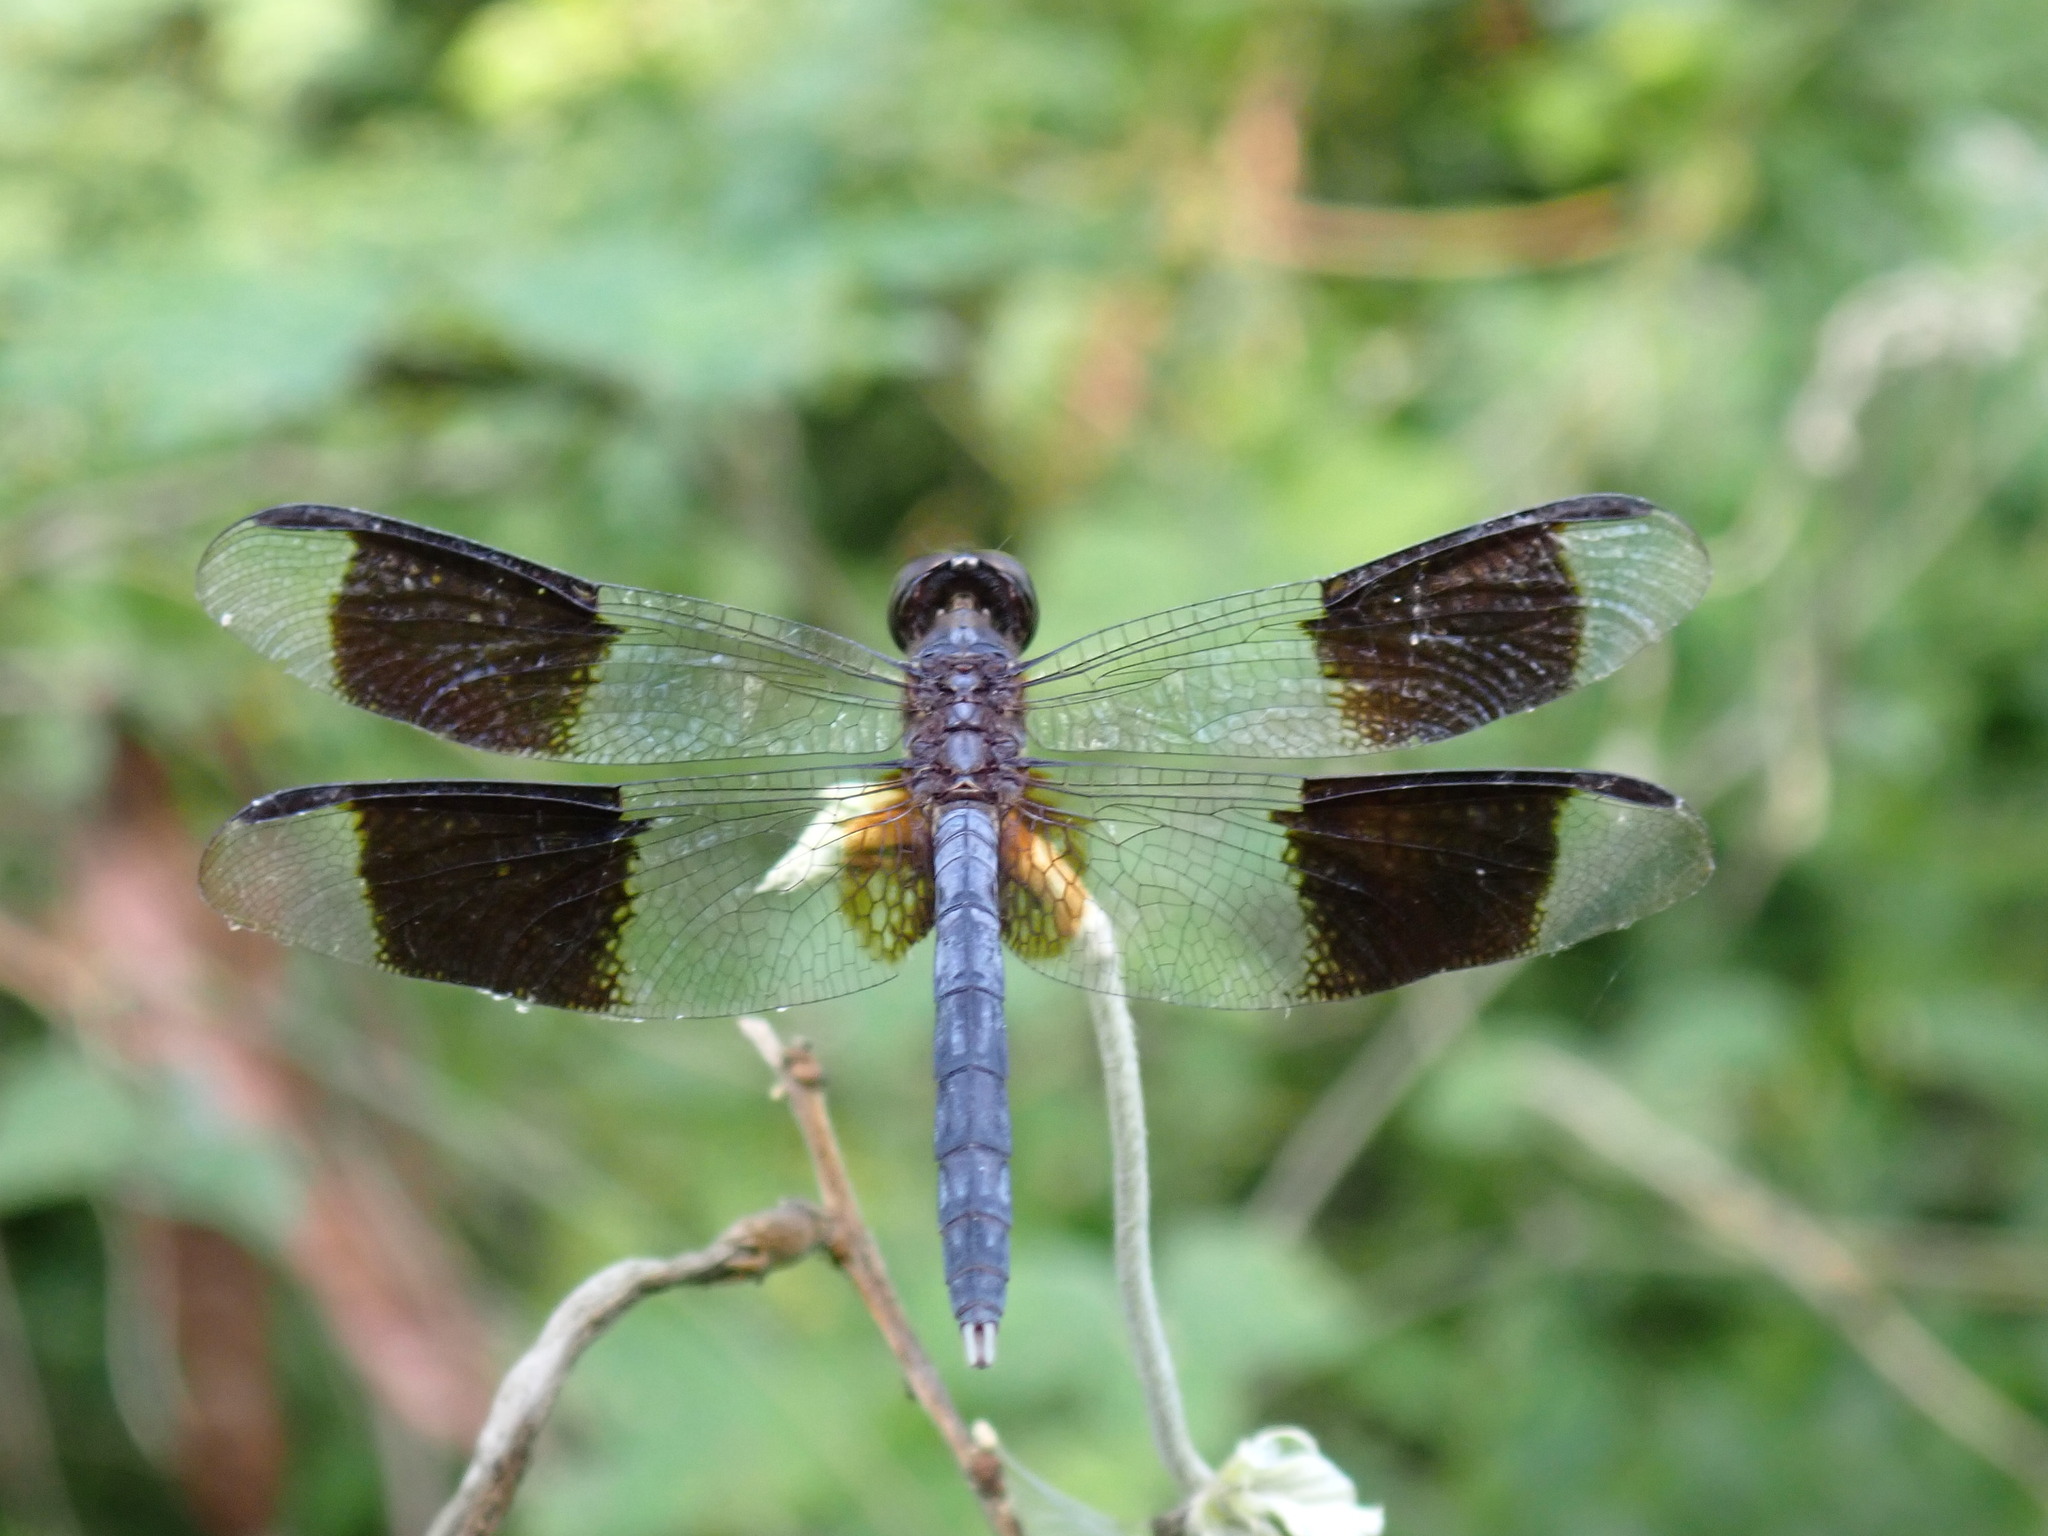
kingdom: Animalia
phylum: Arthropoda
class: Insecta
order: Odonata
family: Libellulidae
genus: Erythrodiplax
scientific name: Erythrodiplax umbrata
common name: Band-winged dragonlet
